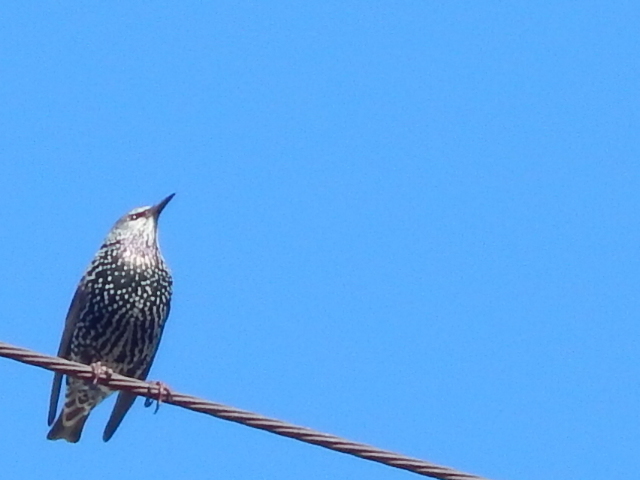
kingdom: Animalia
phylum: Chordata
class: Aves
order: Passeriformes
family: Sturnidae
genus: Sturnus
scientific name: Sturnus vulgaris
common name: Common starling
